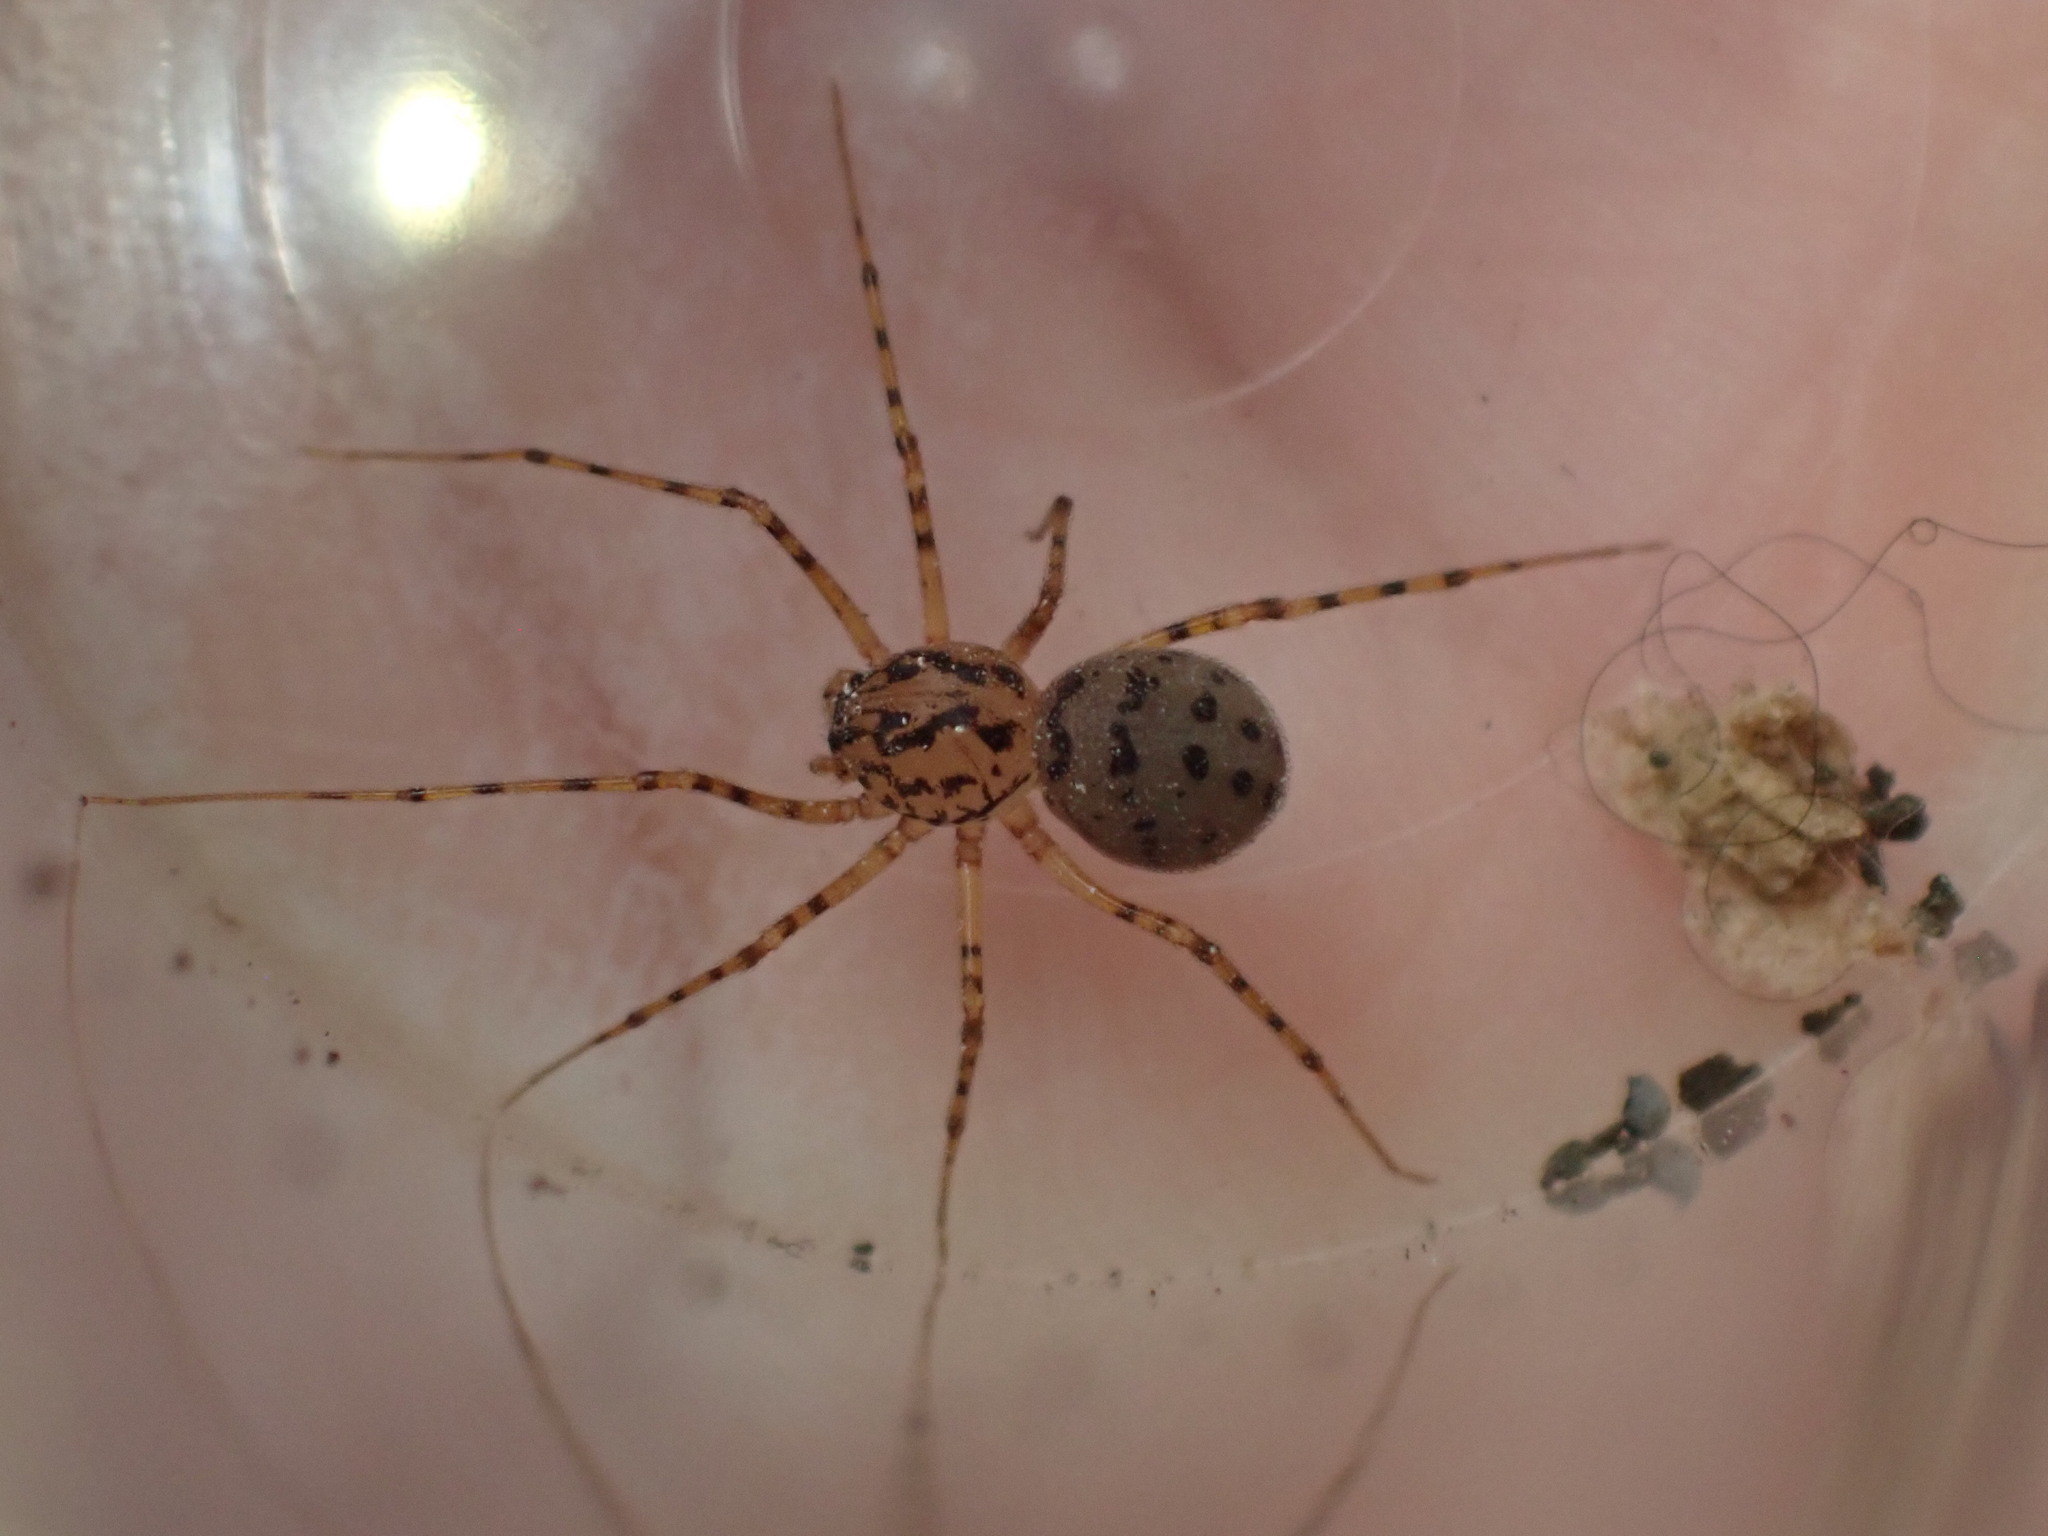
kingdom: Animalia
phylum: Arthropoda
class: Arachnida
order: Araneae
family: Scytodidae
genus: Scytodes
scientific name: Scytodes thoracica
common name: Spitting spider
